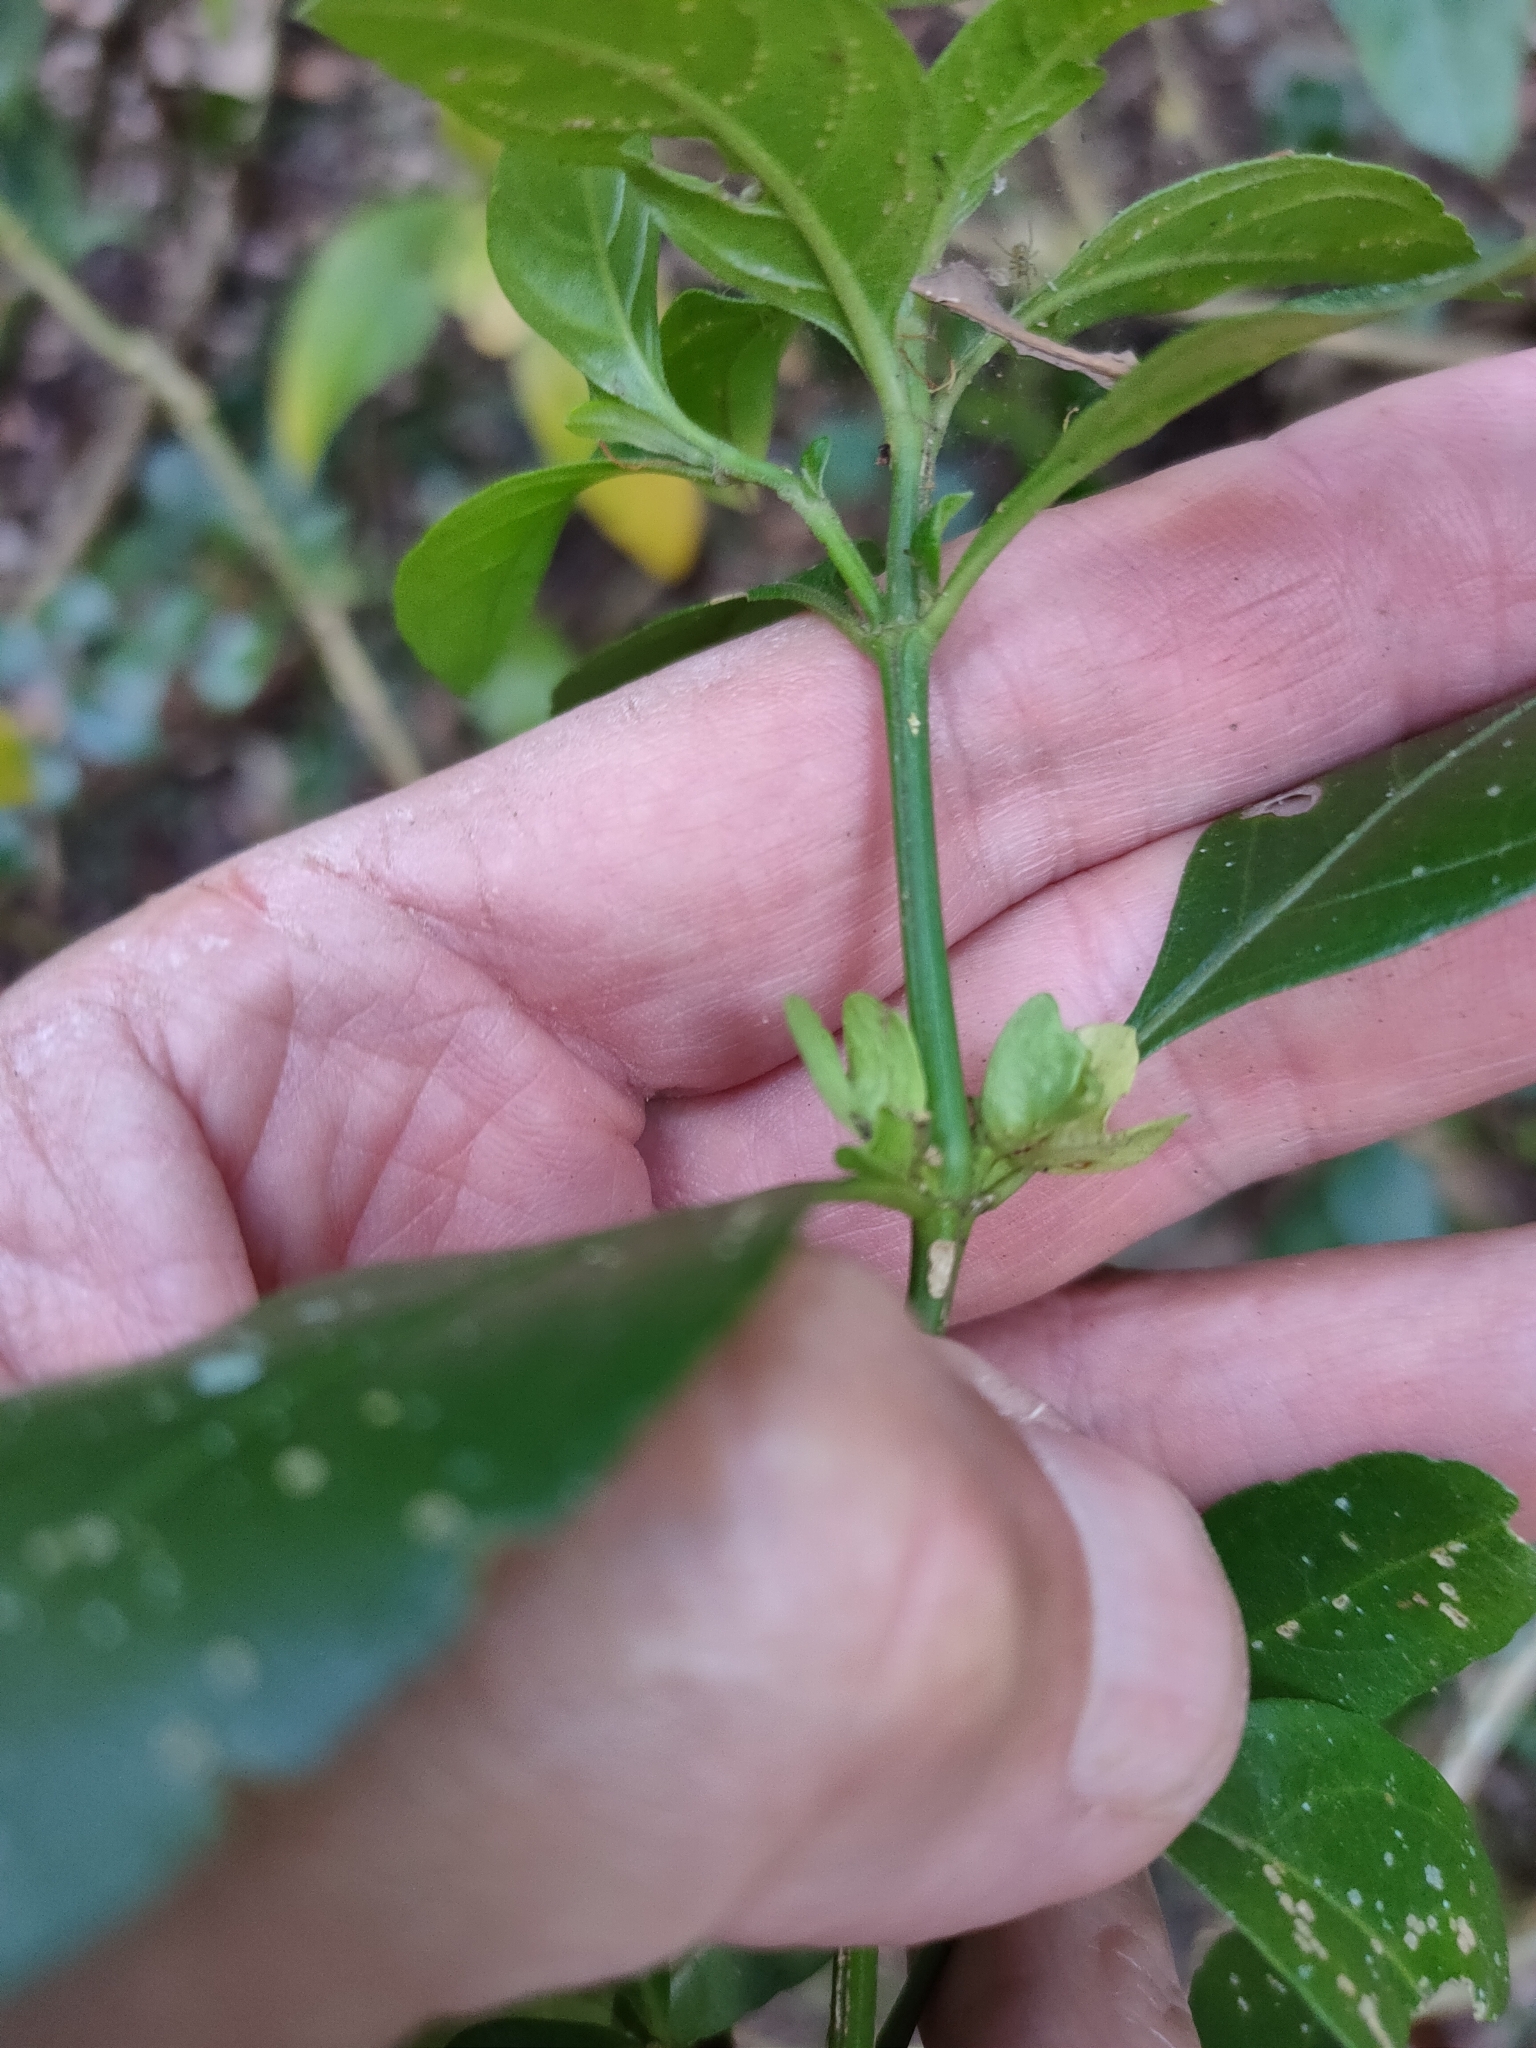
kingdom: Plantae
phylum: Tracheophyta
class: Magnoliopsida
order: Lamiales
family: Acanthaceae
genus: Justicia
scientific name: Justicia hygrophiloides
